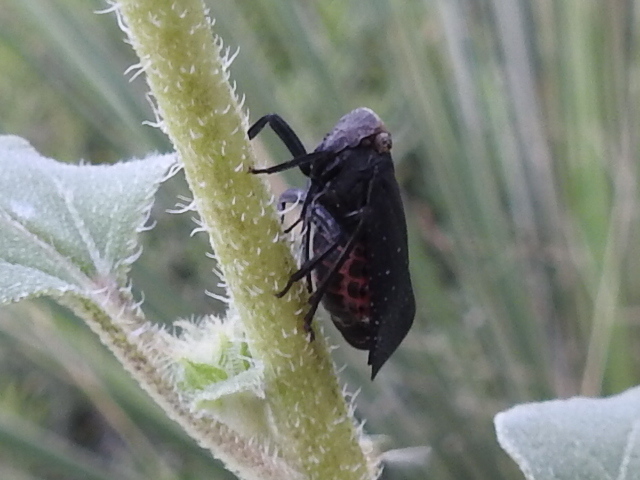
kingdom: Animalia
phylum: Arthropoda
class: Insecta
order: Hemiptera
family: Fulgoridae
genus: Crepusia
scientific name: Crepusia fuliginosa
